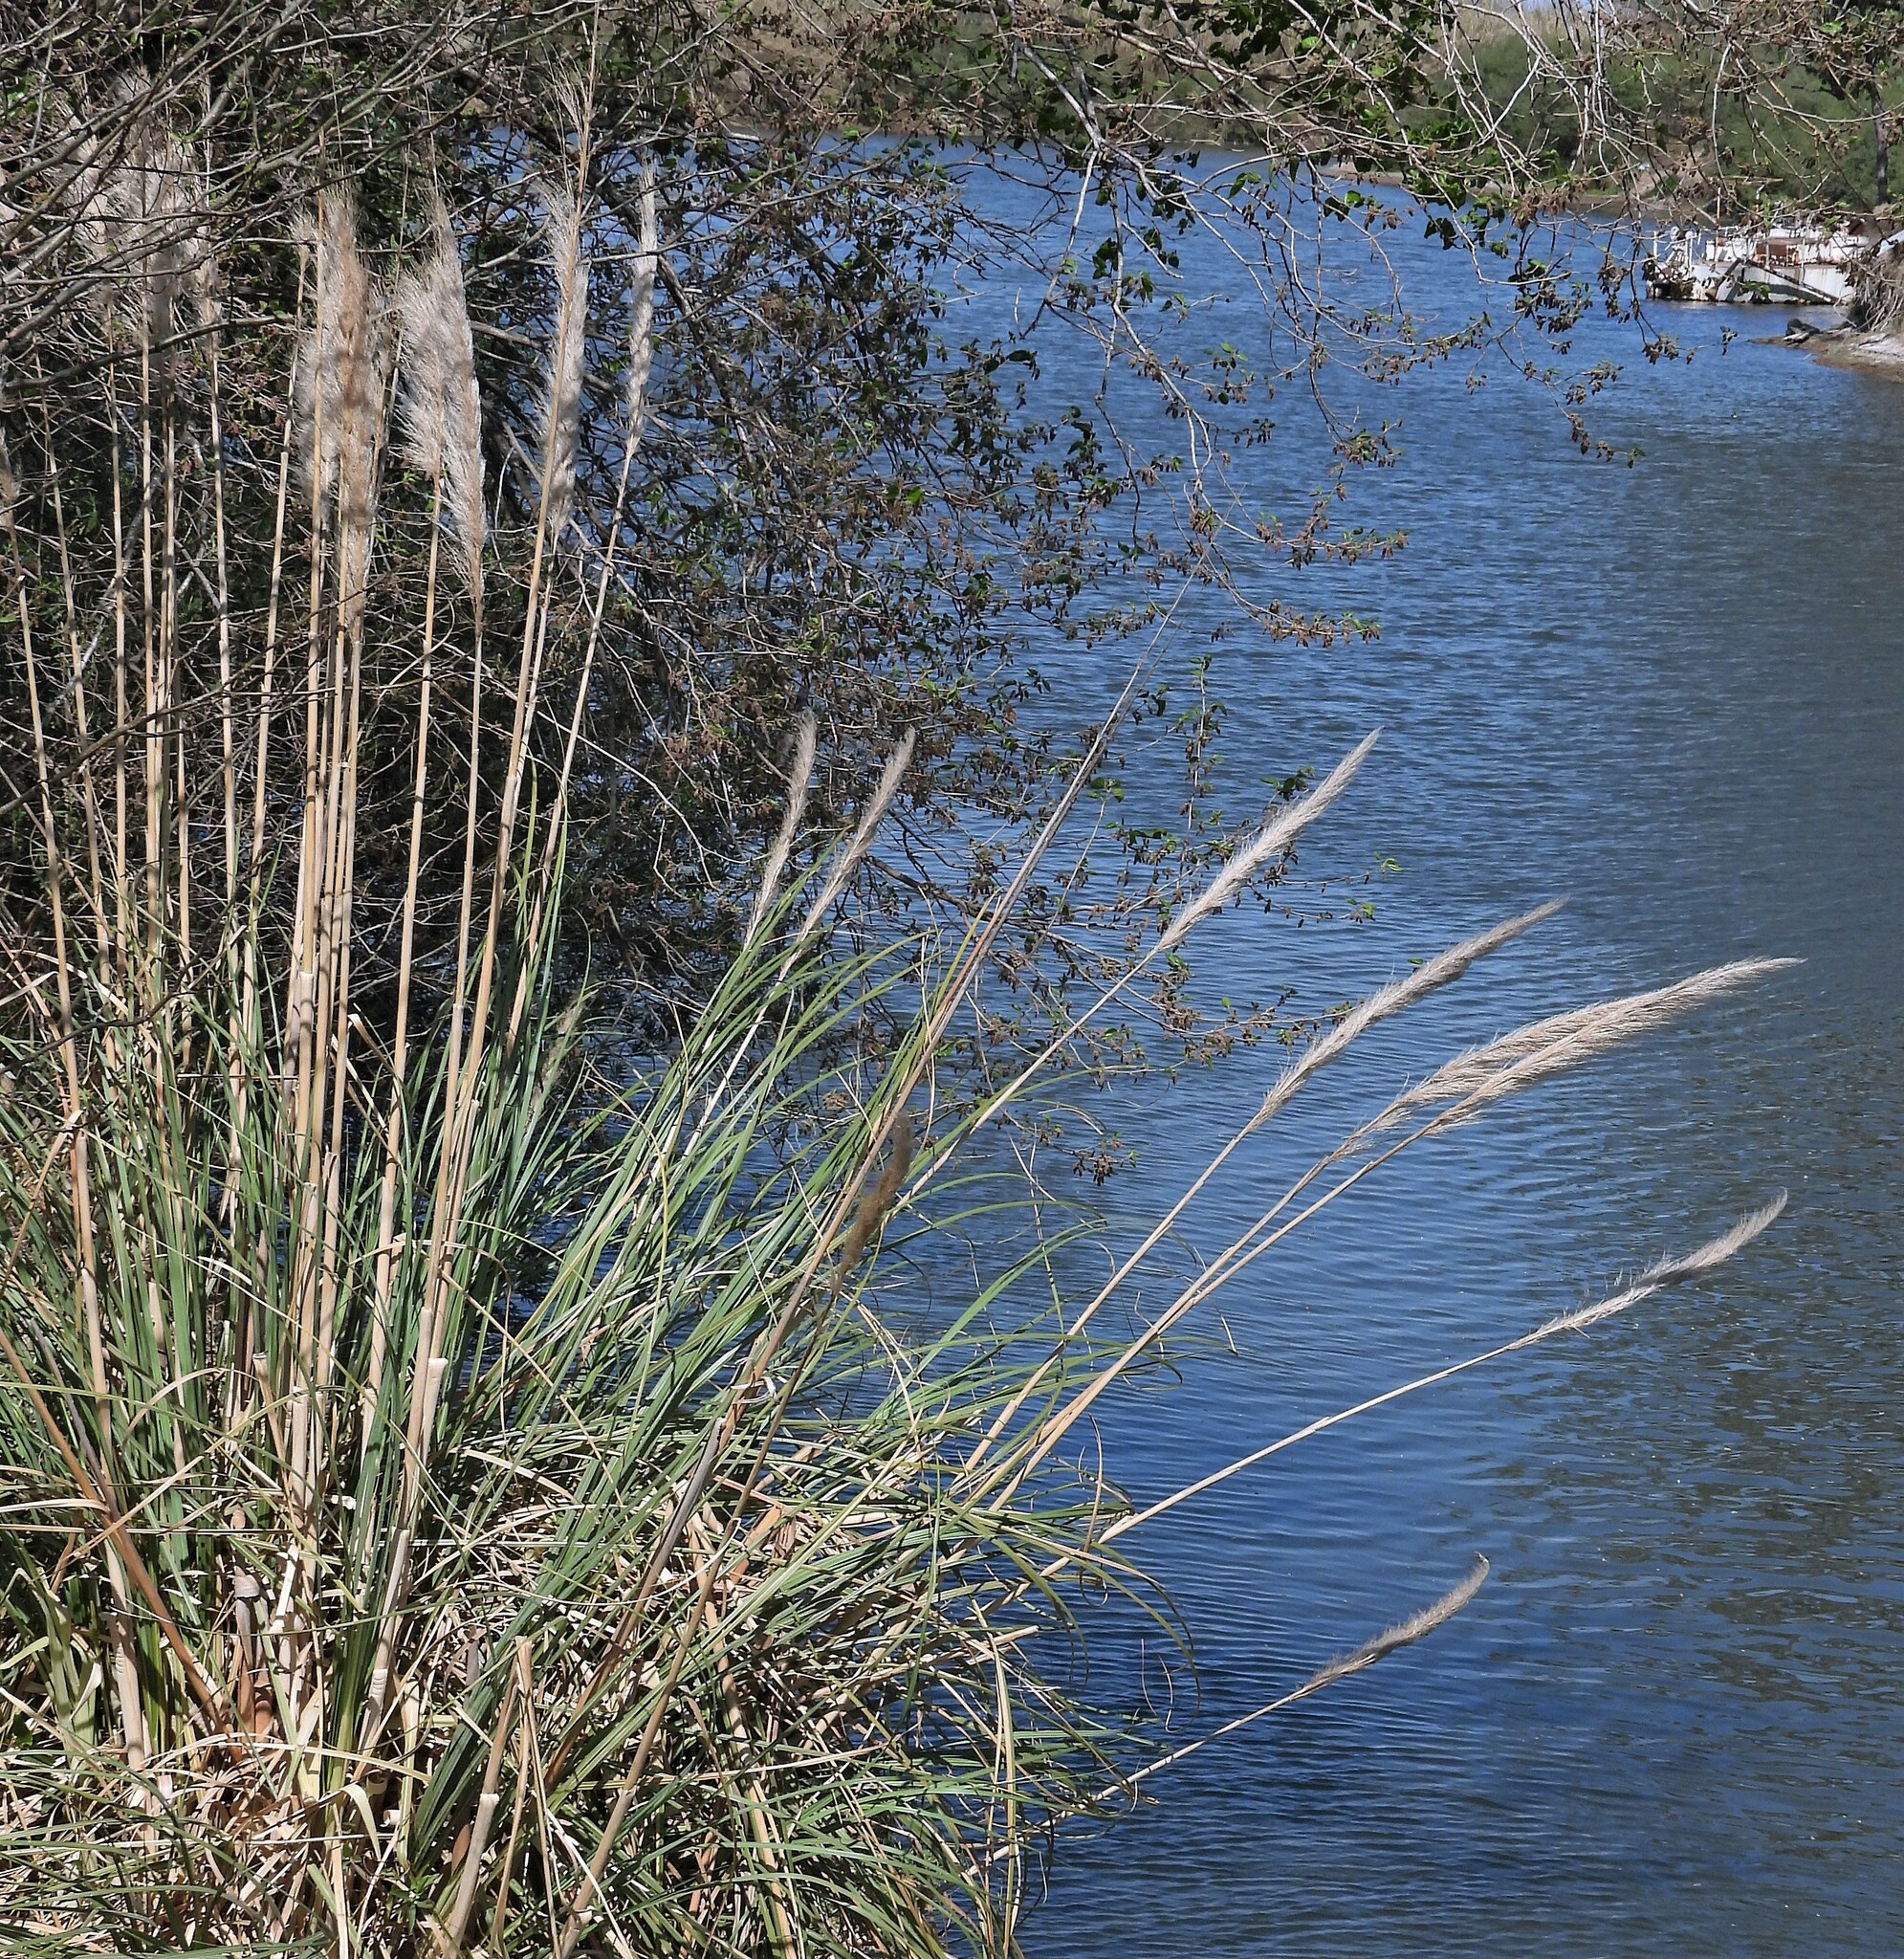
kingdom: Plantae
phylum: Tracheophyta
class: Liliopsida
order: Poales
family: Poaceae
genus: Cortaderia
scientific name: Cortaderia selloana
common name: Uruguayan pampas grass
